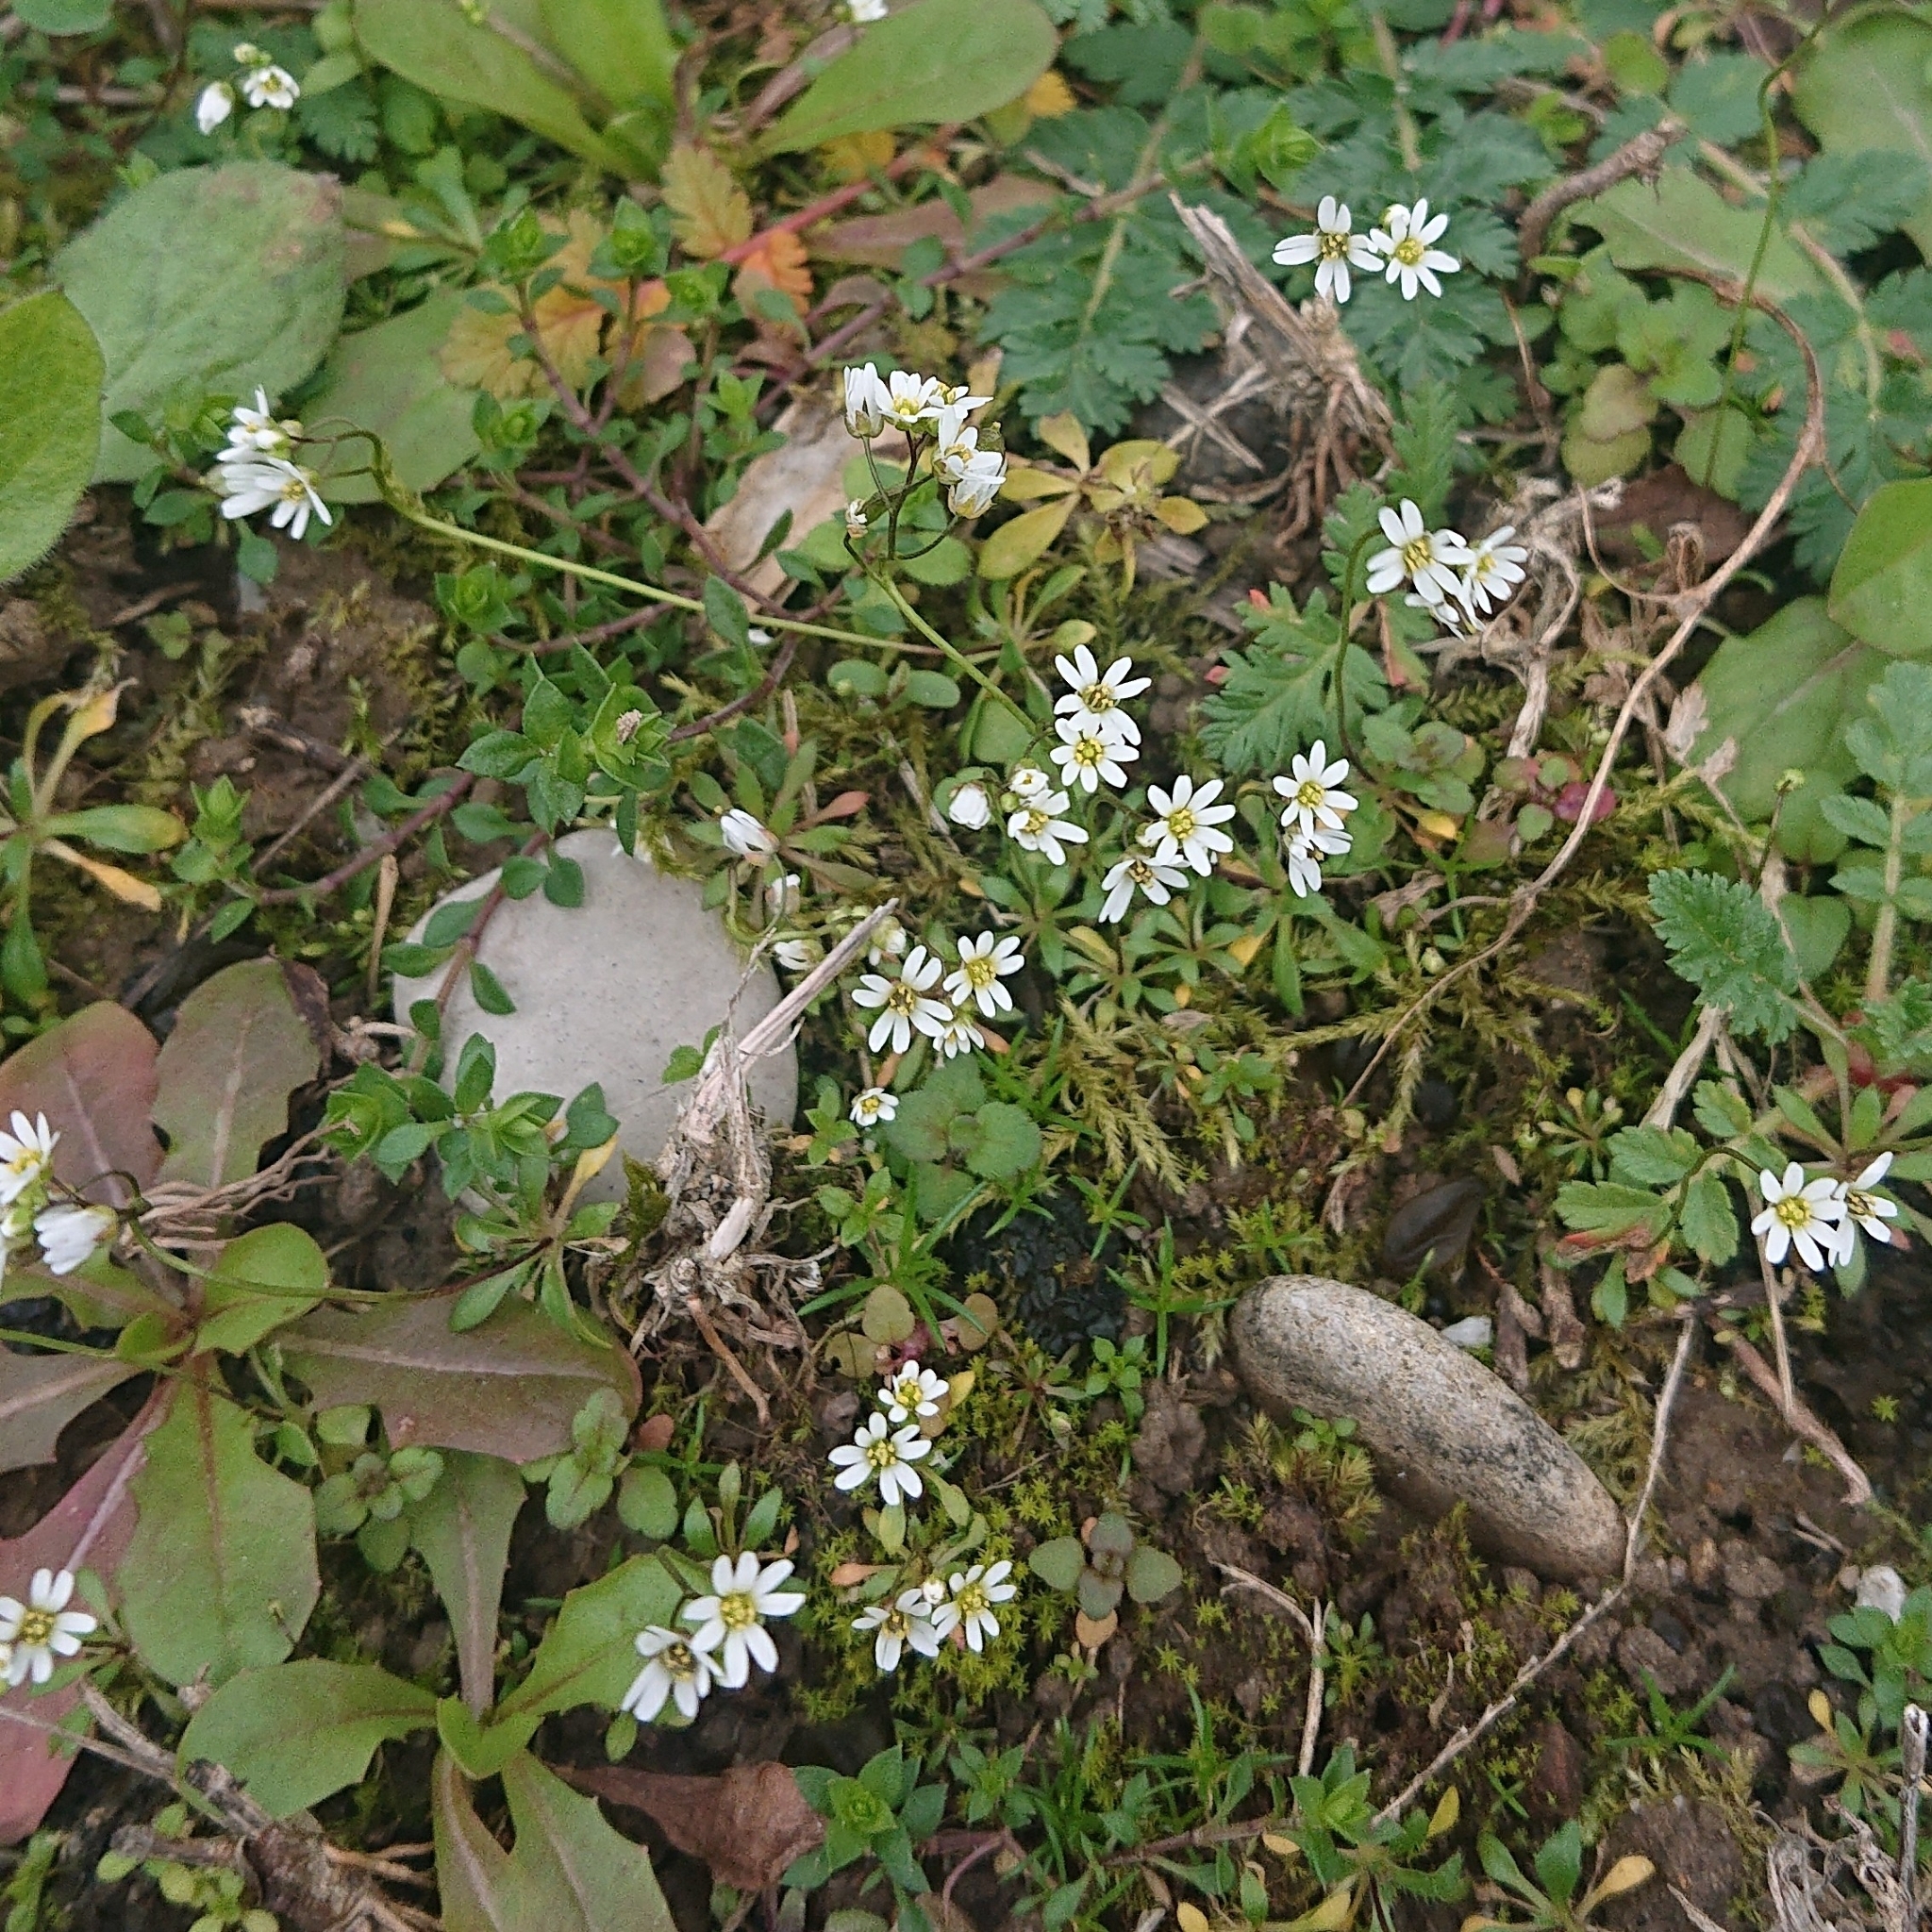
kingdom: Plantae
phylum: Tracheophyta
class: Magnoliopsida
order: Brassicales
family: Brassicaceae
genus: Draba
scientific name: Draba verna
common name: Spring draba
